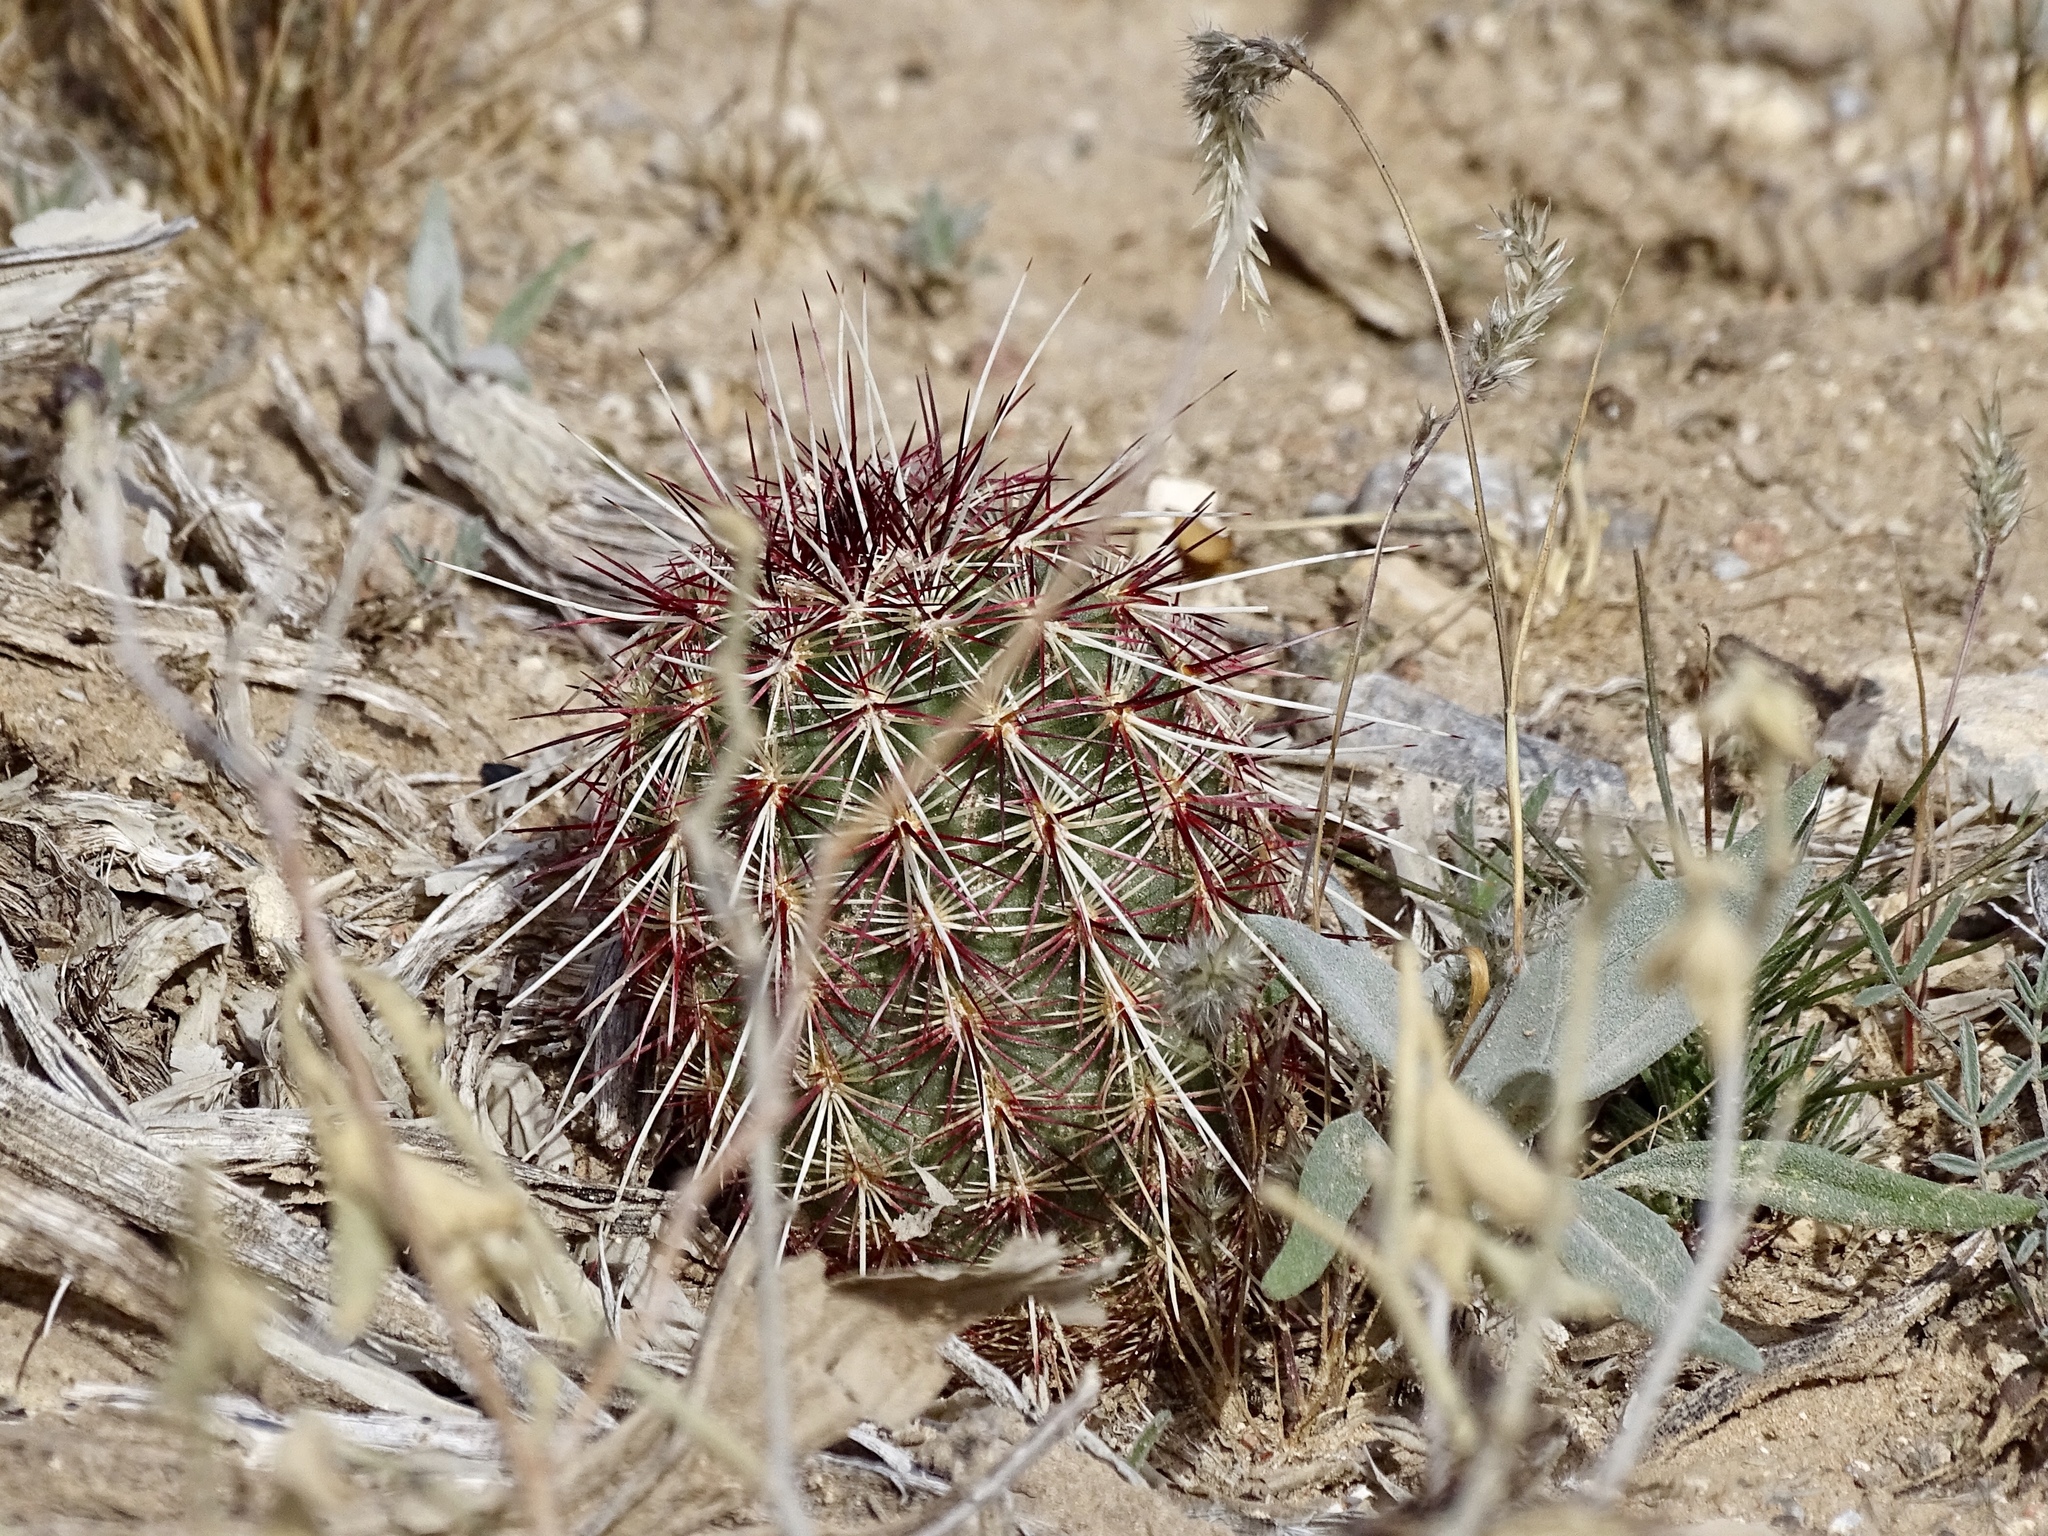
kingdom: Plantae
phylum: Tracheophyta
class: Magnoliopsida
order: Caryophyllales
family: Cactaceae
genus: Echinocereus
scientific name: Echinocereus viridiflorus
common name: Nylon hedgehog cactus
